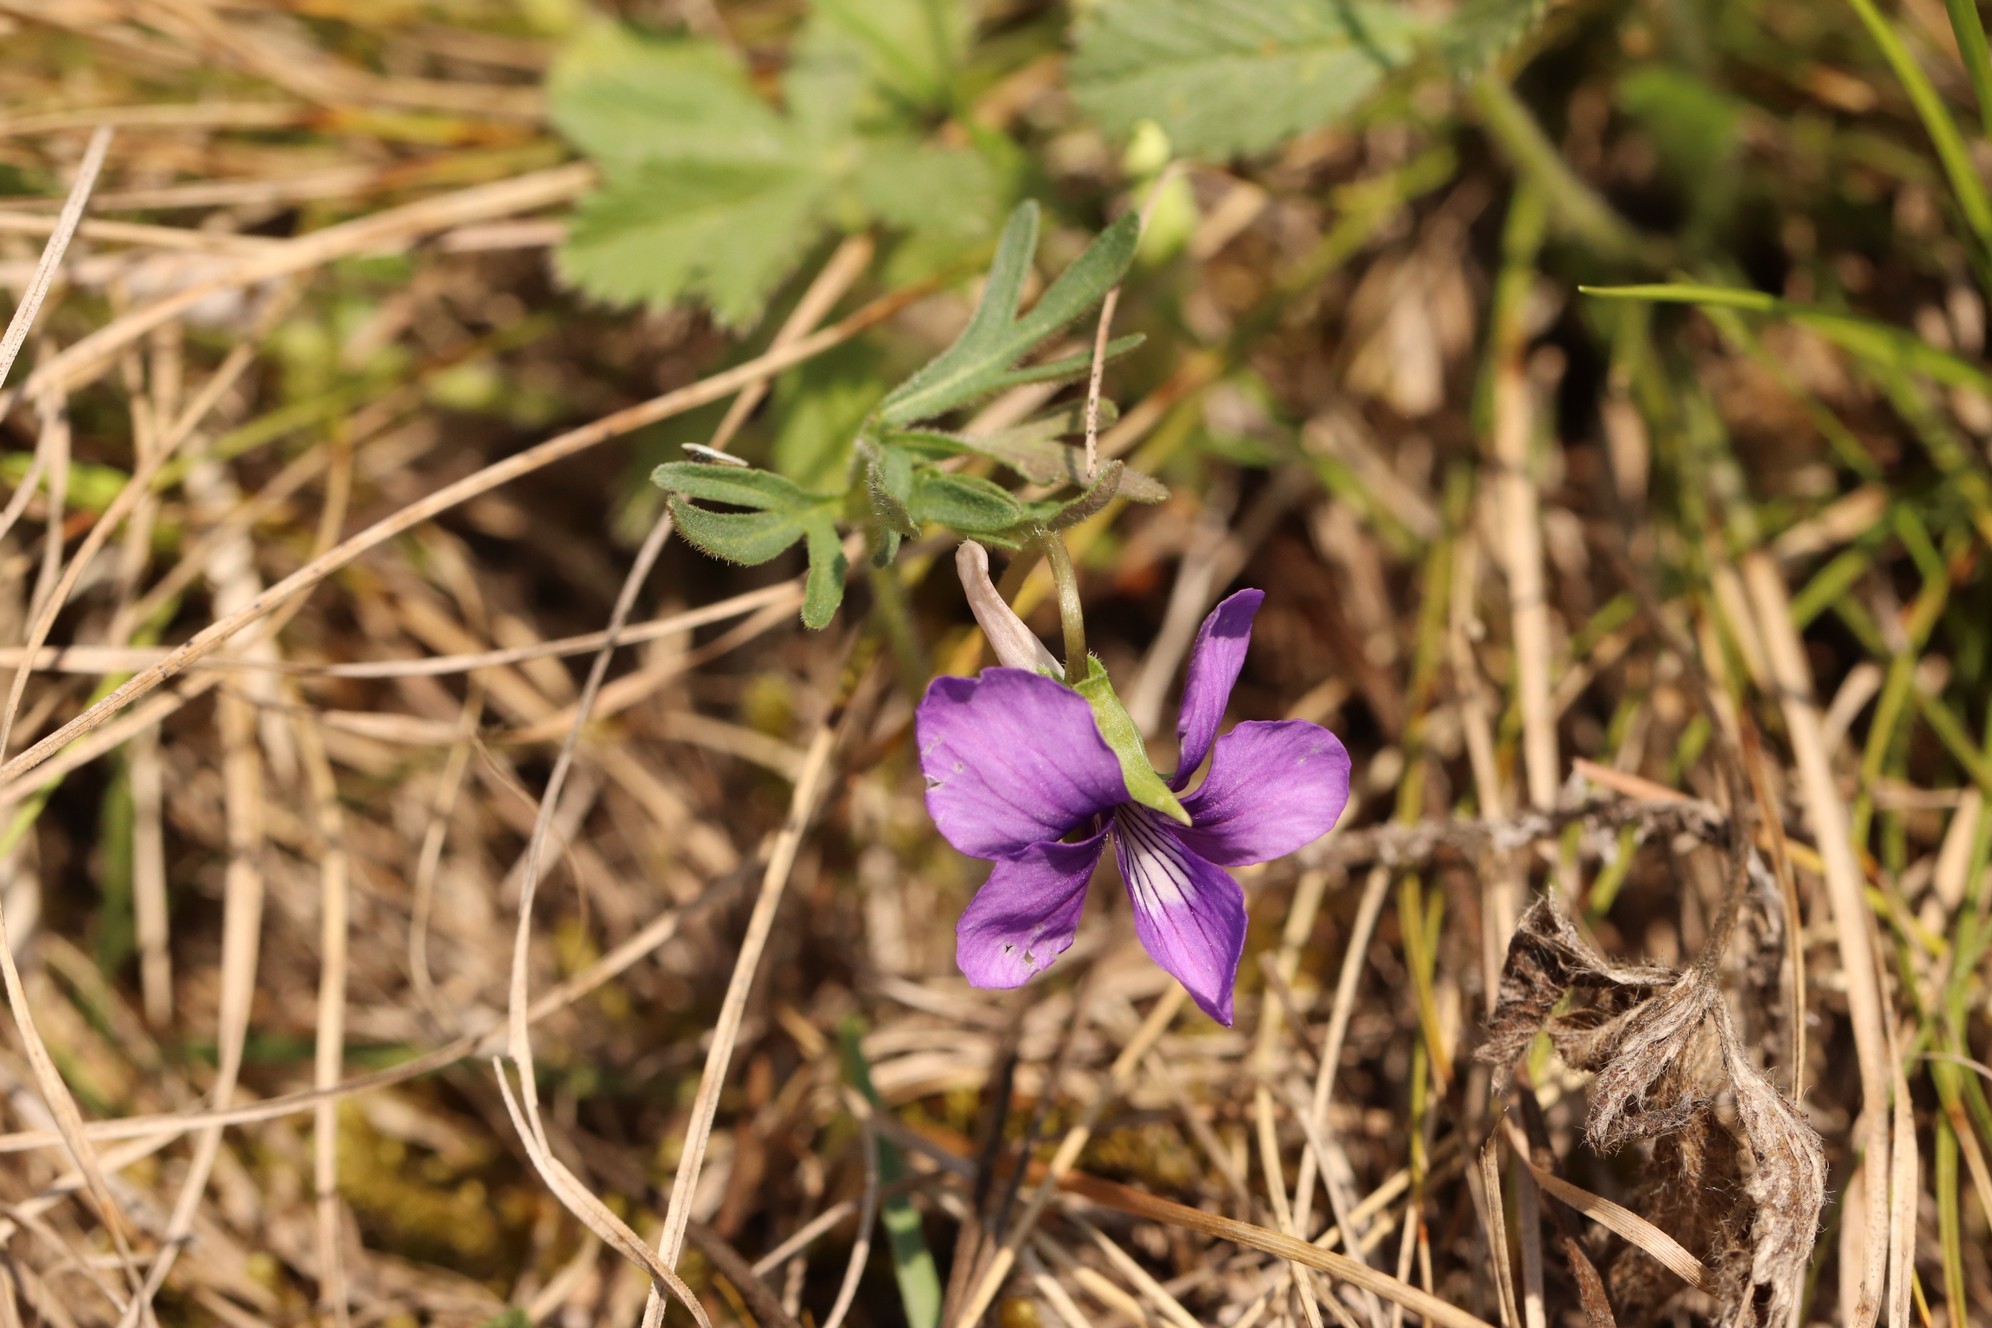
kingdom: Plantae
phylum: Tracheophyta
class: Magnoliopsida
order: Malpighiales
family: Violaceae
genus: Viola
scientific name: Viola multifida
